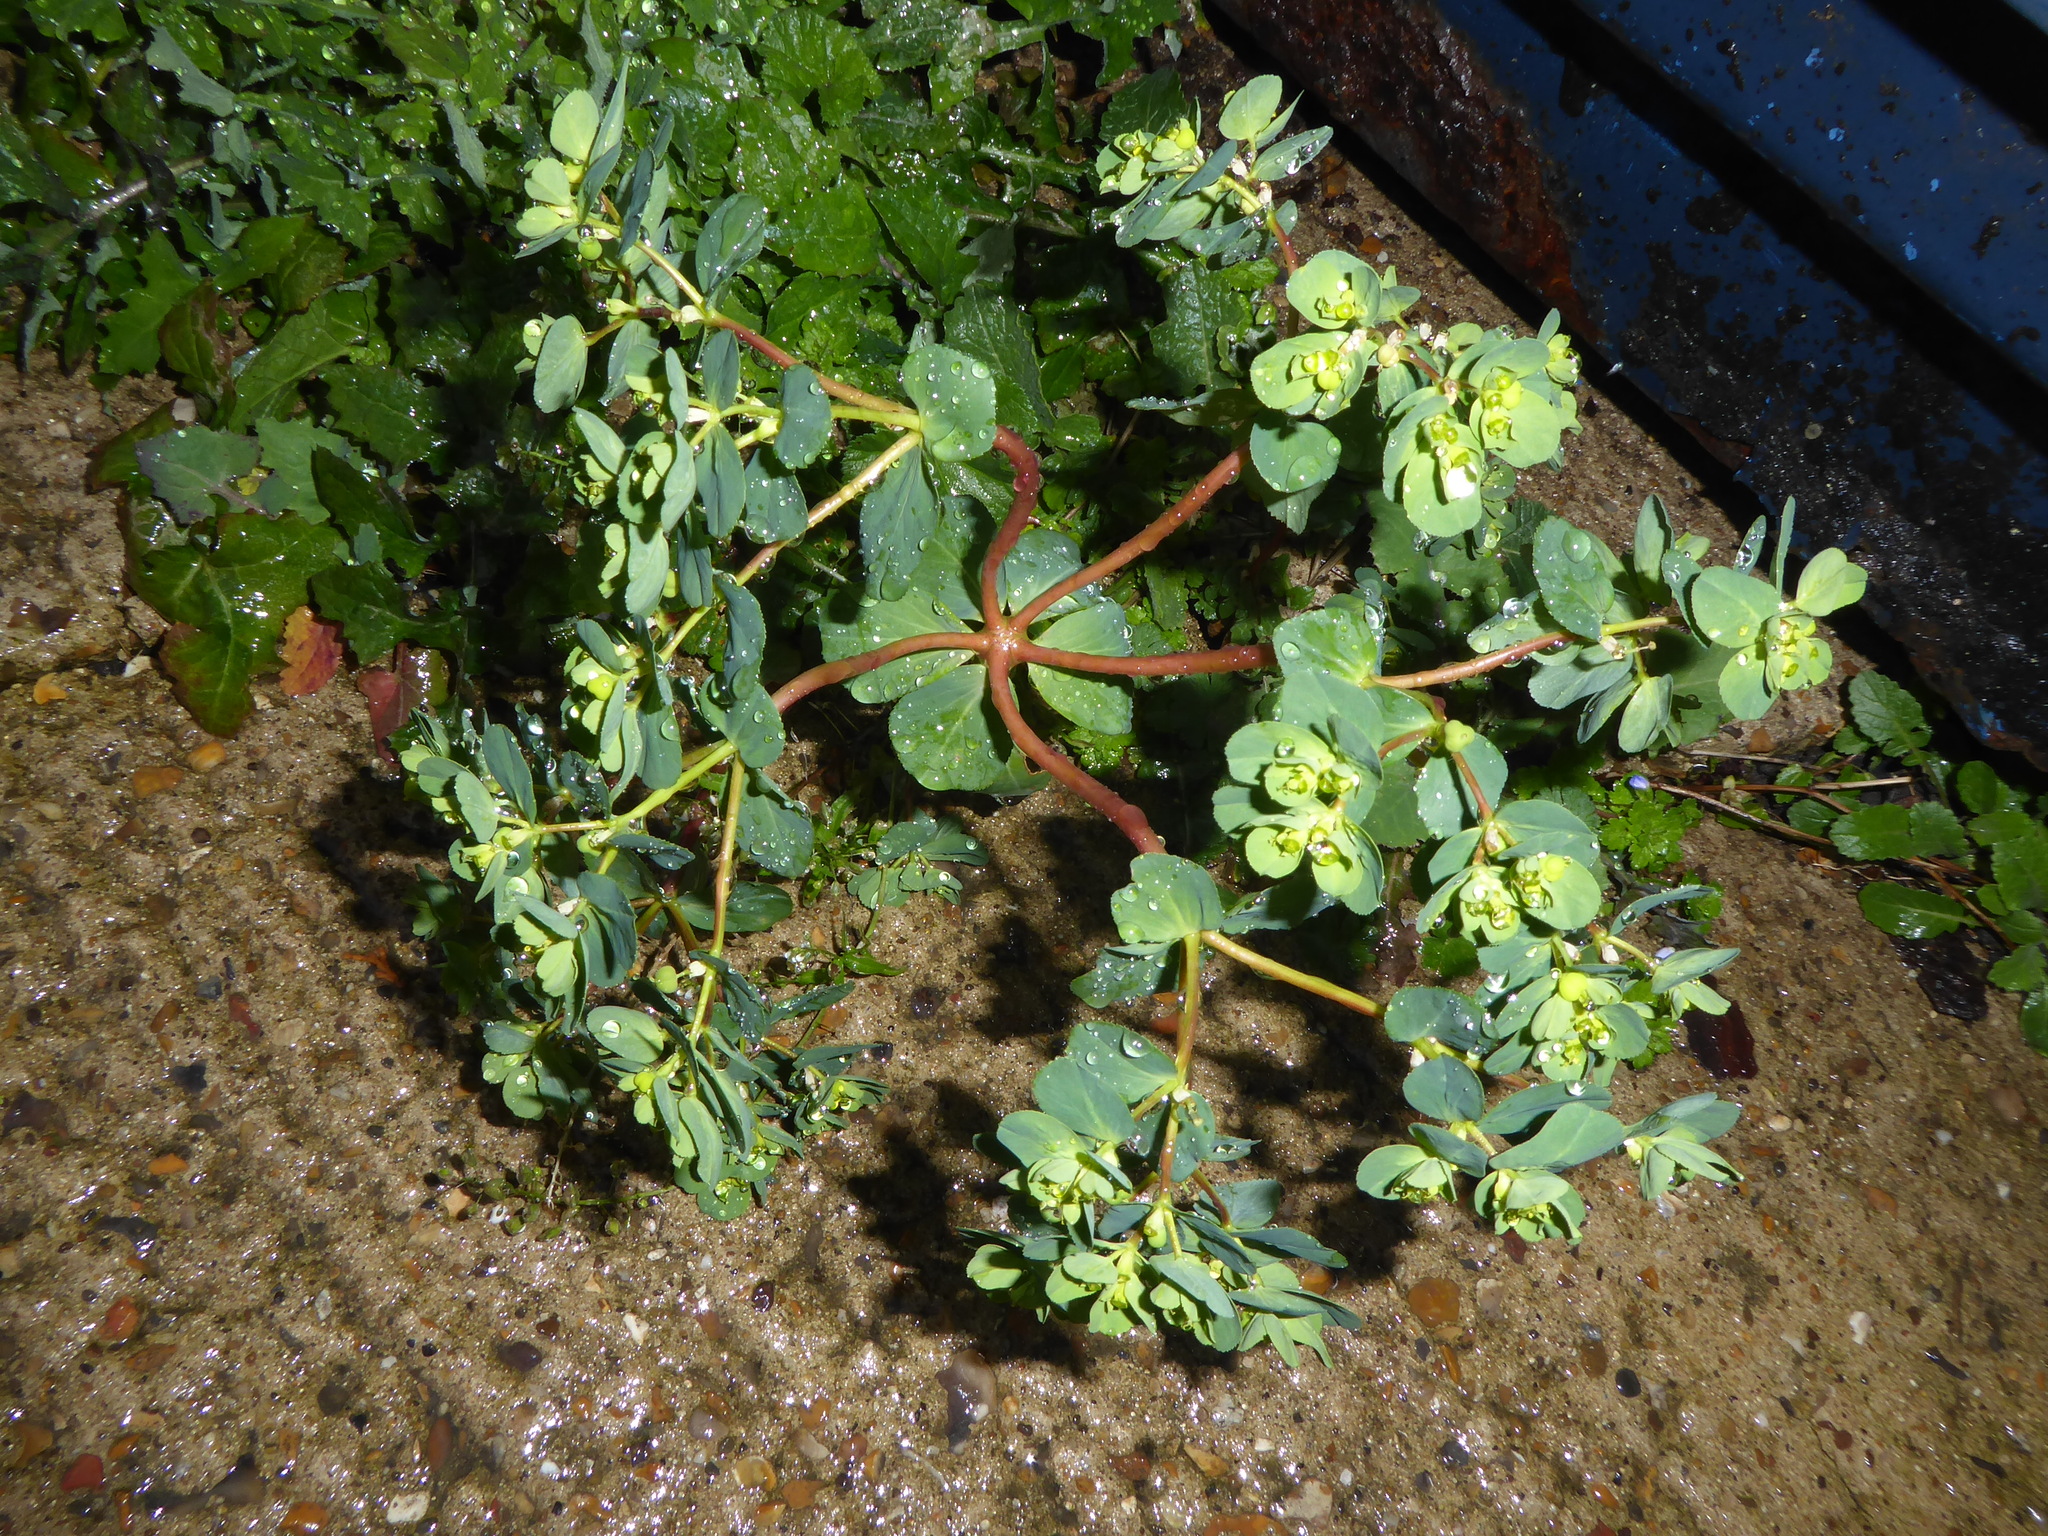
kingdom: Plantae
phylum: Tracheophyta
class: Magnoliopsida
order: Malpighiales
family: Euphorbiaceae
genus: Euphorbia
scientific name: Euphorbia helioscopia
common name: Sun spurge
